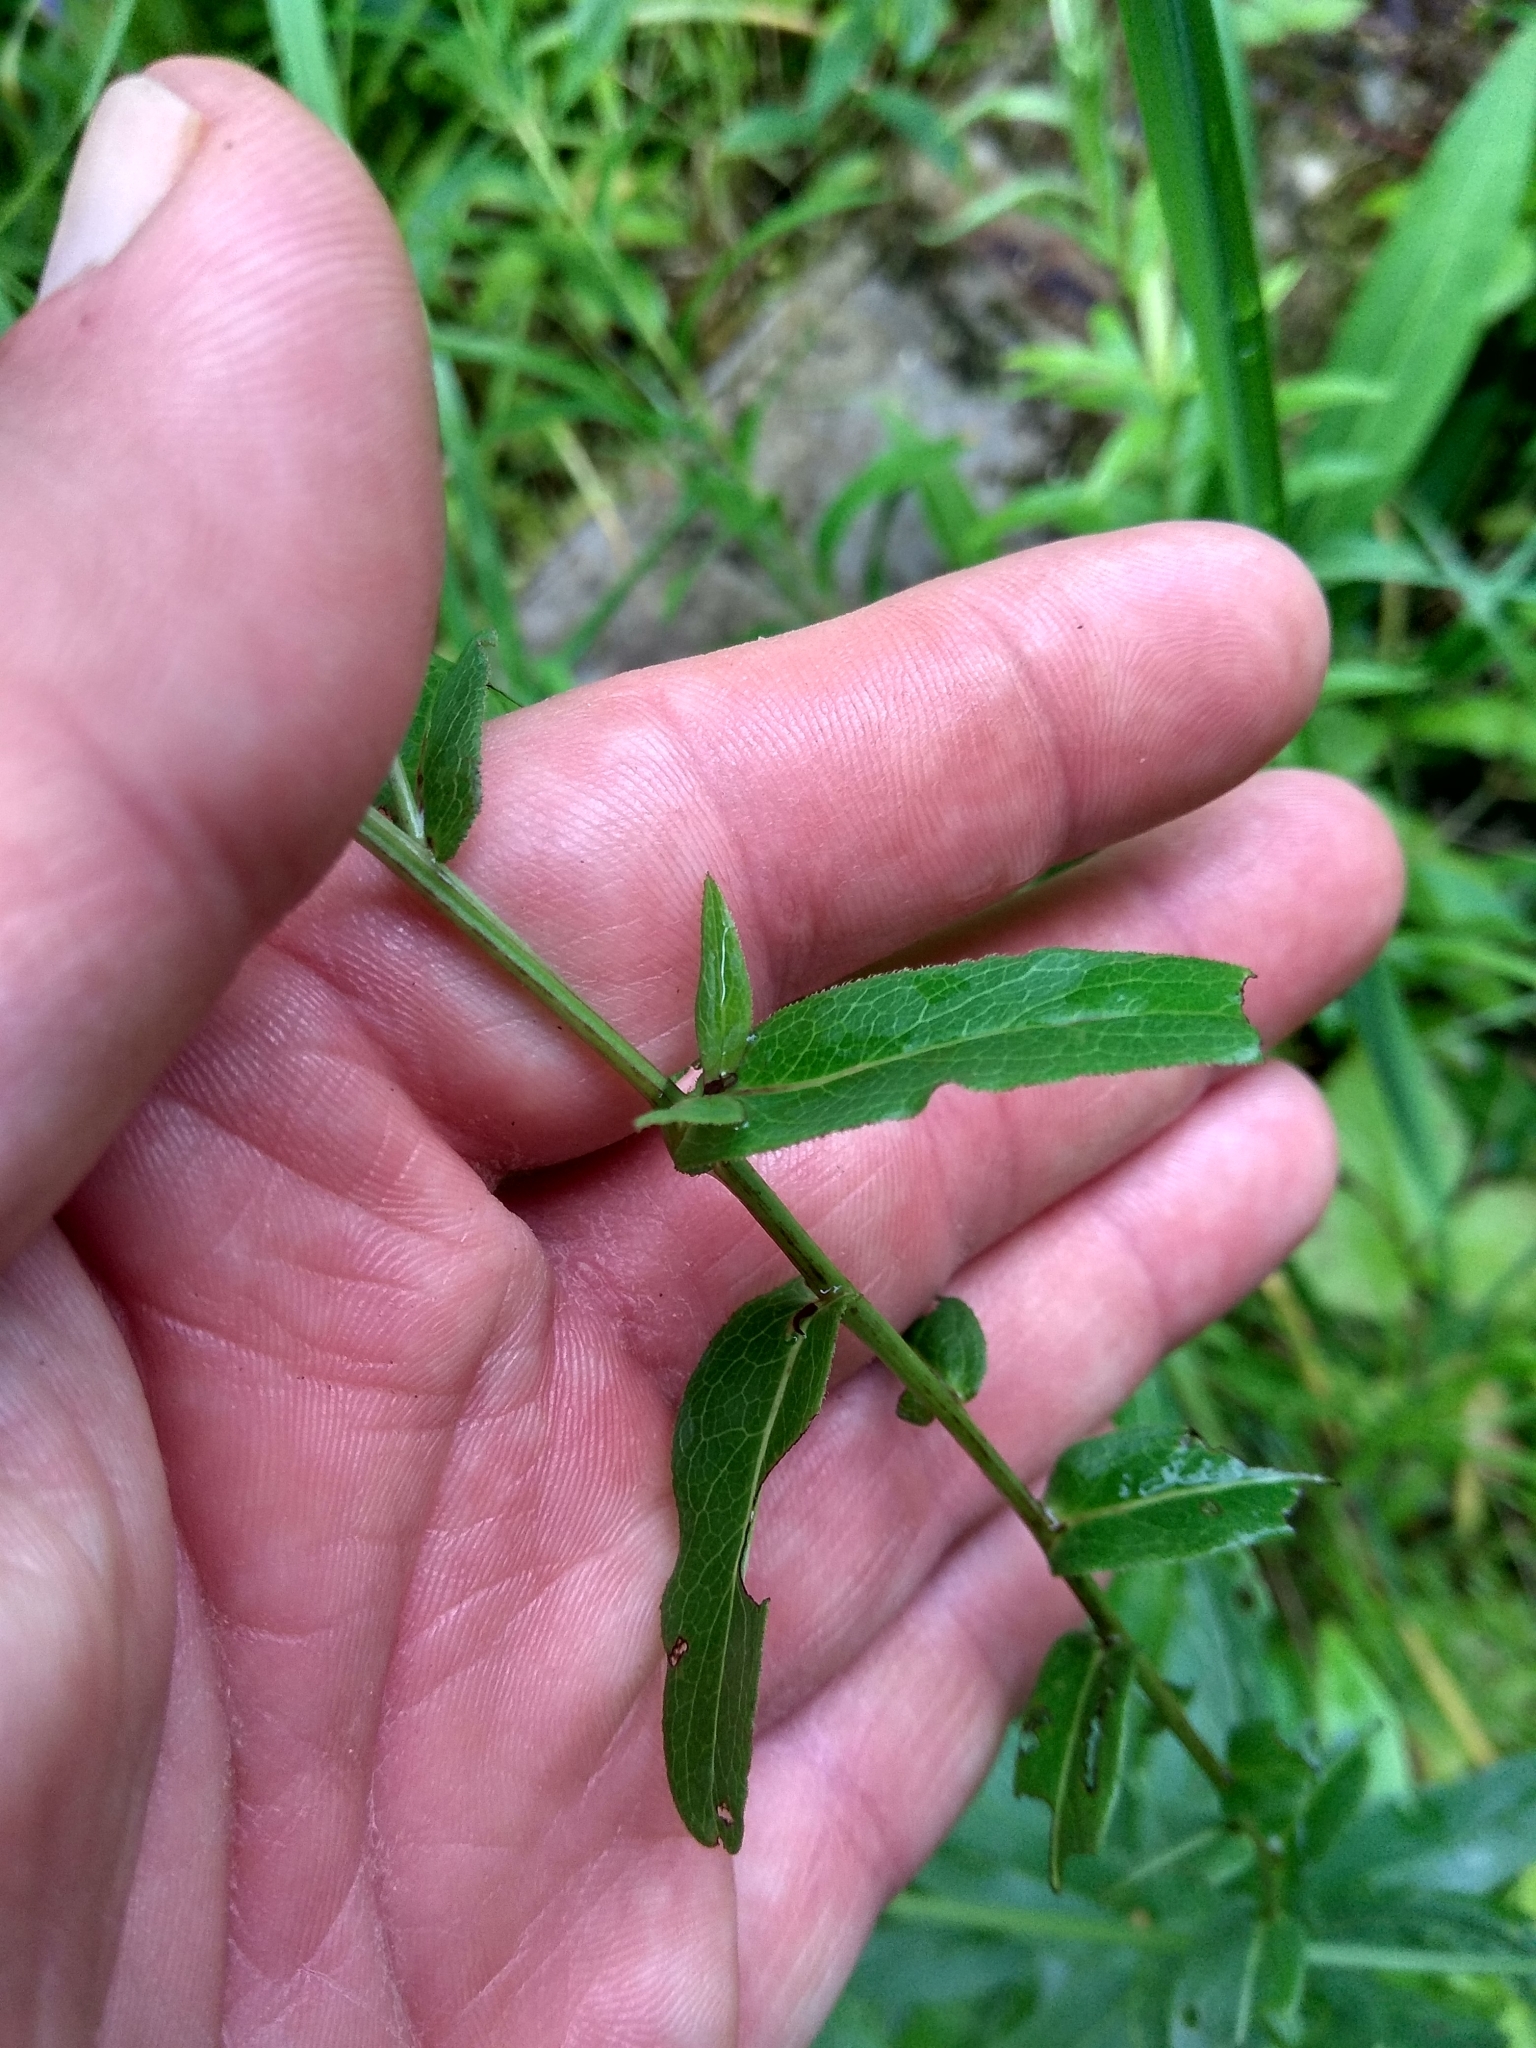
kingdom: Plantae
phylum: Tracheophyta
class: Magnoliopsida
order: Asterales
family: Asteraceae
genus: Pentanema
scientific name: Pentanema salicinum
